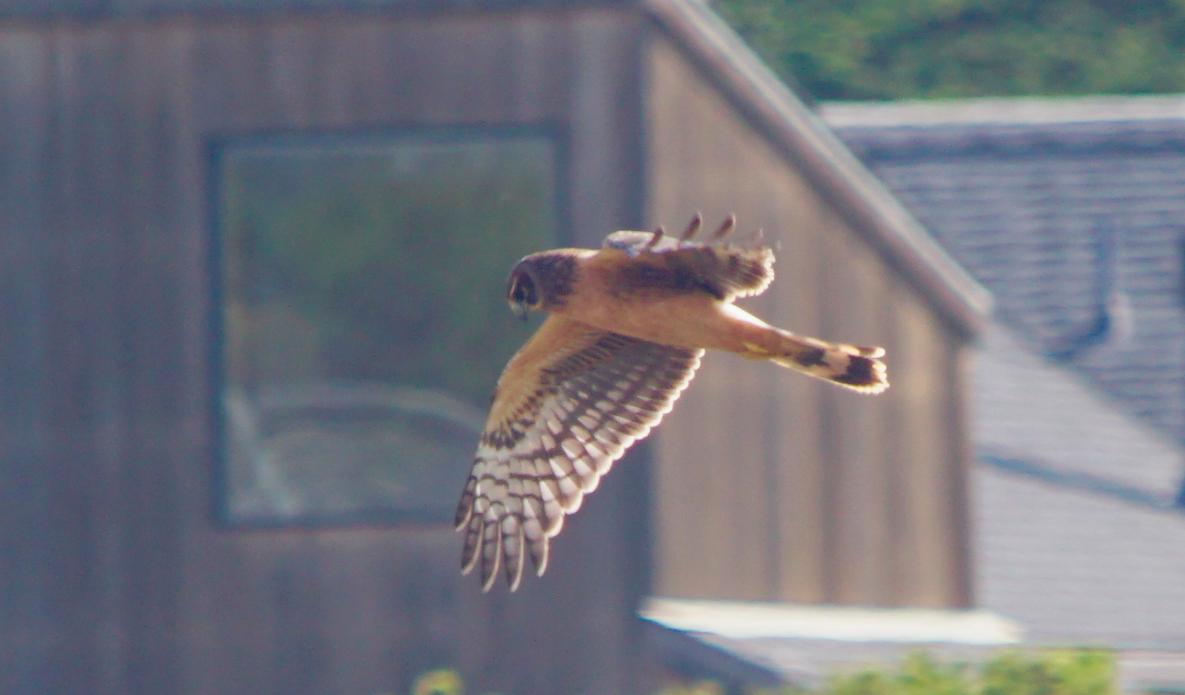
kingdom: Animalia
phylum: Chordata
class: Aves
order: Accipitriformes
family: Accipitridae
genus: Circus
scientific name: Circus cyaneus
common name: Hen harrier
